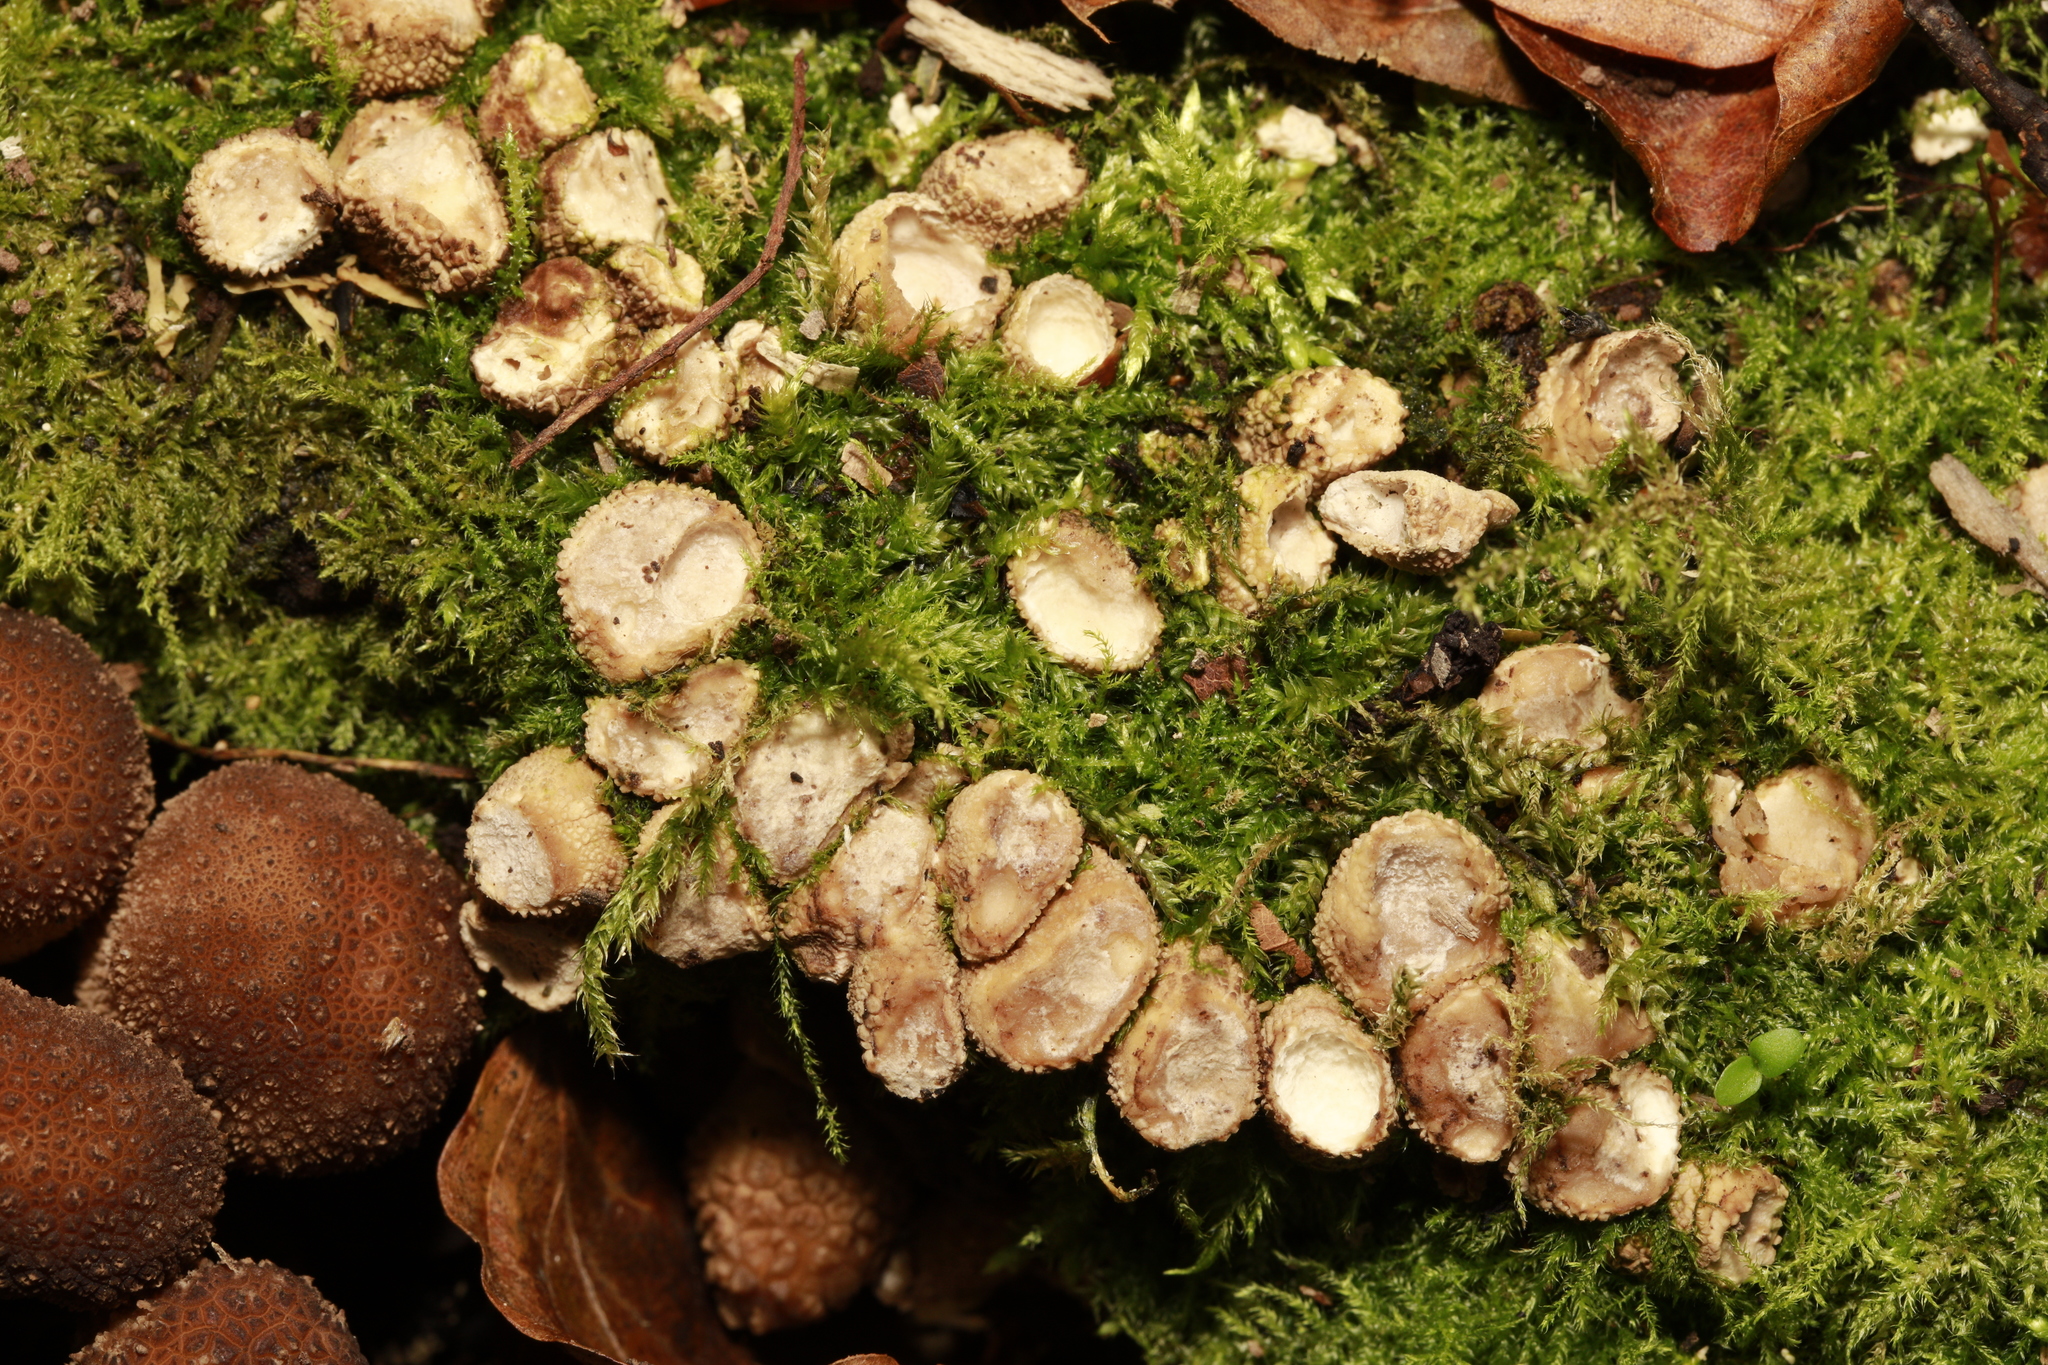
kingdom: Fungi
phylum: Basidiomycota
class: Agaricomycetes
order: Agaricales
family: Lycoperdaceae
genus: Lycoperdon
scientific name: Lycoperdon
